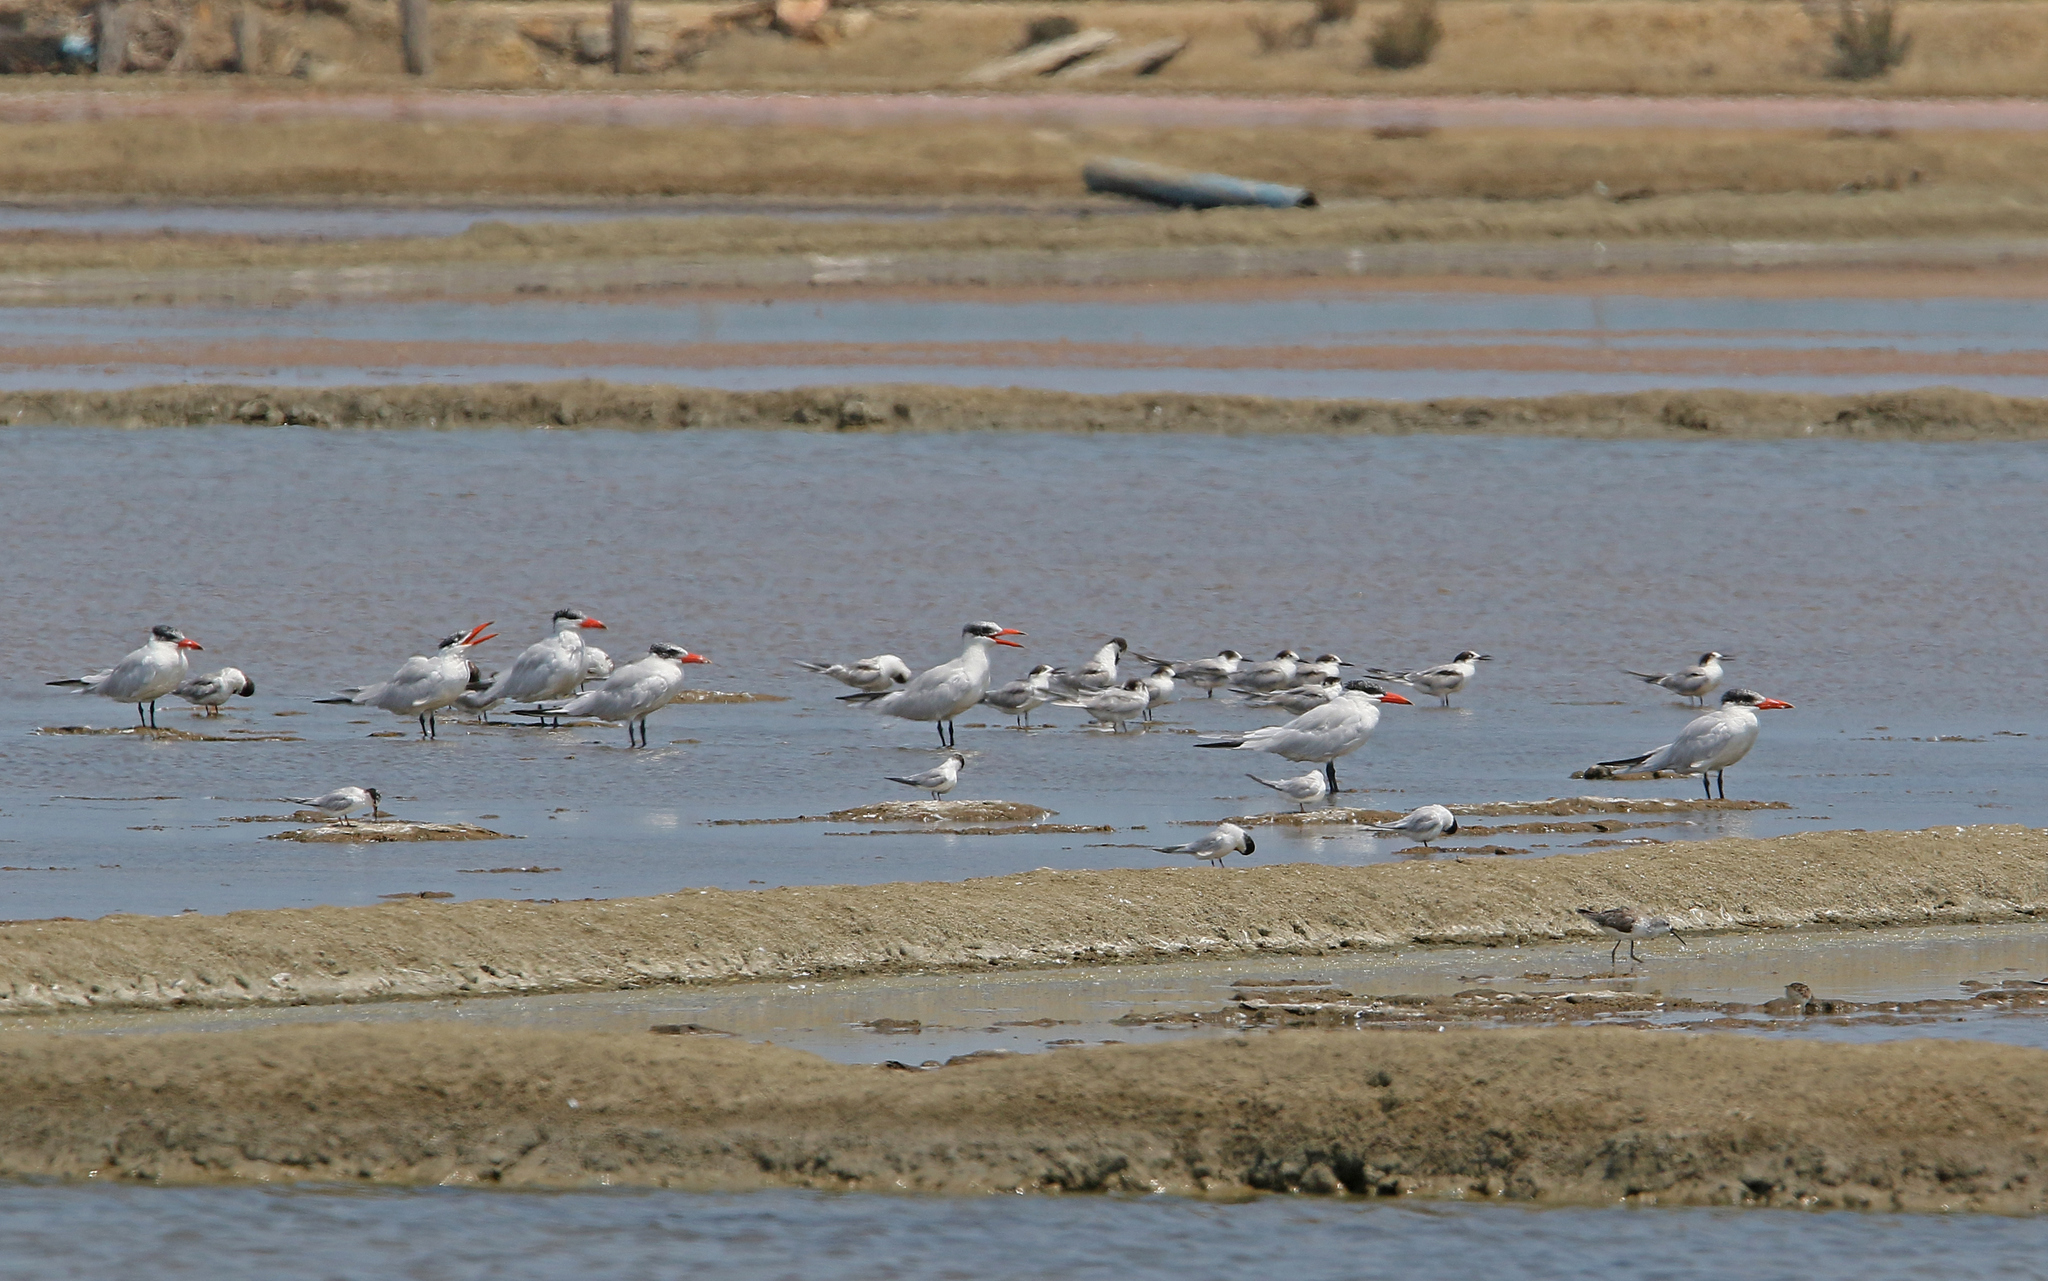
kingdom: Animalia
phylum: Chordata
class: Aves
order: Charadriiformes
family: Laridae
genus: Hydroprogne
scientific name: Hydroprogne caspia
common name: Caspian tern
